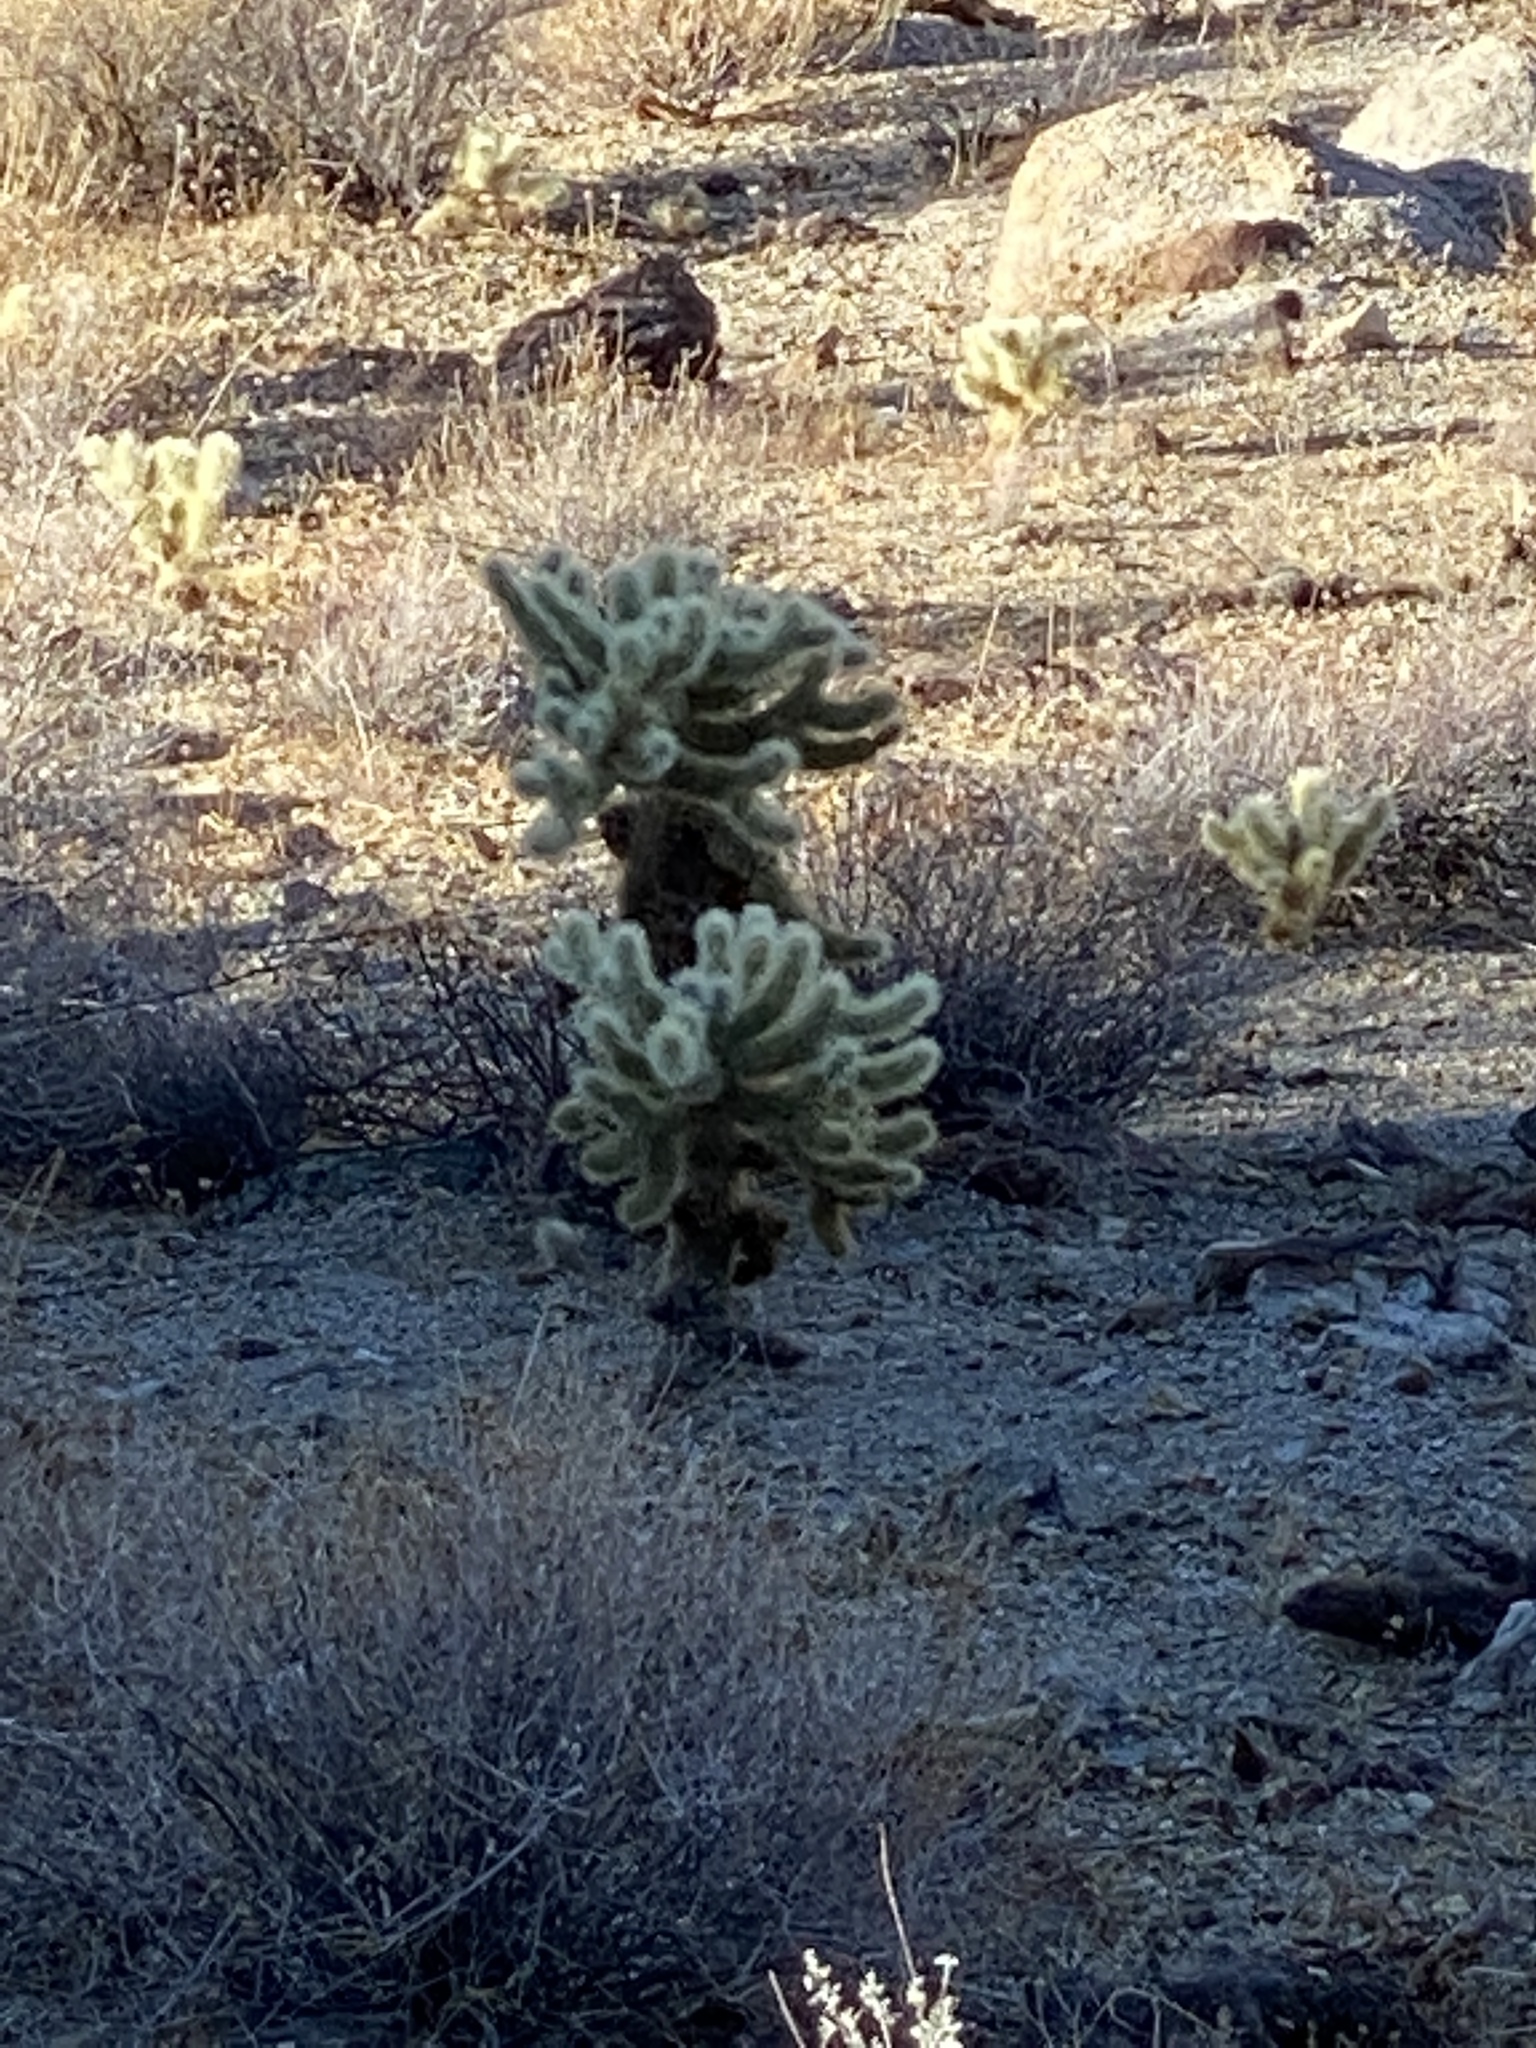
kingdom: Plantae
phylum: Tracheophyta
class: Magnoliopsida
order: Caryophyllales
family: Cactaceae
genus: Cylindropuntia
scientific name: Cylindropuntia fosbergii
